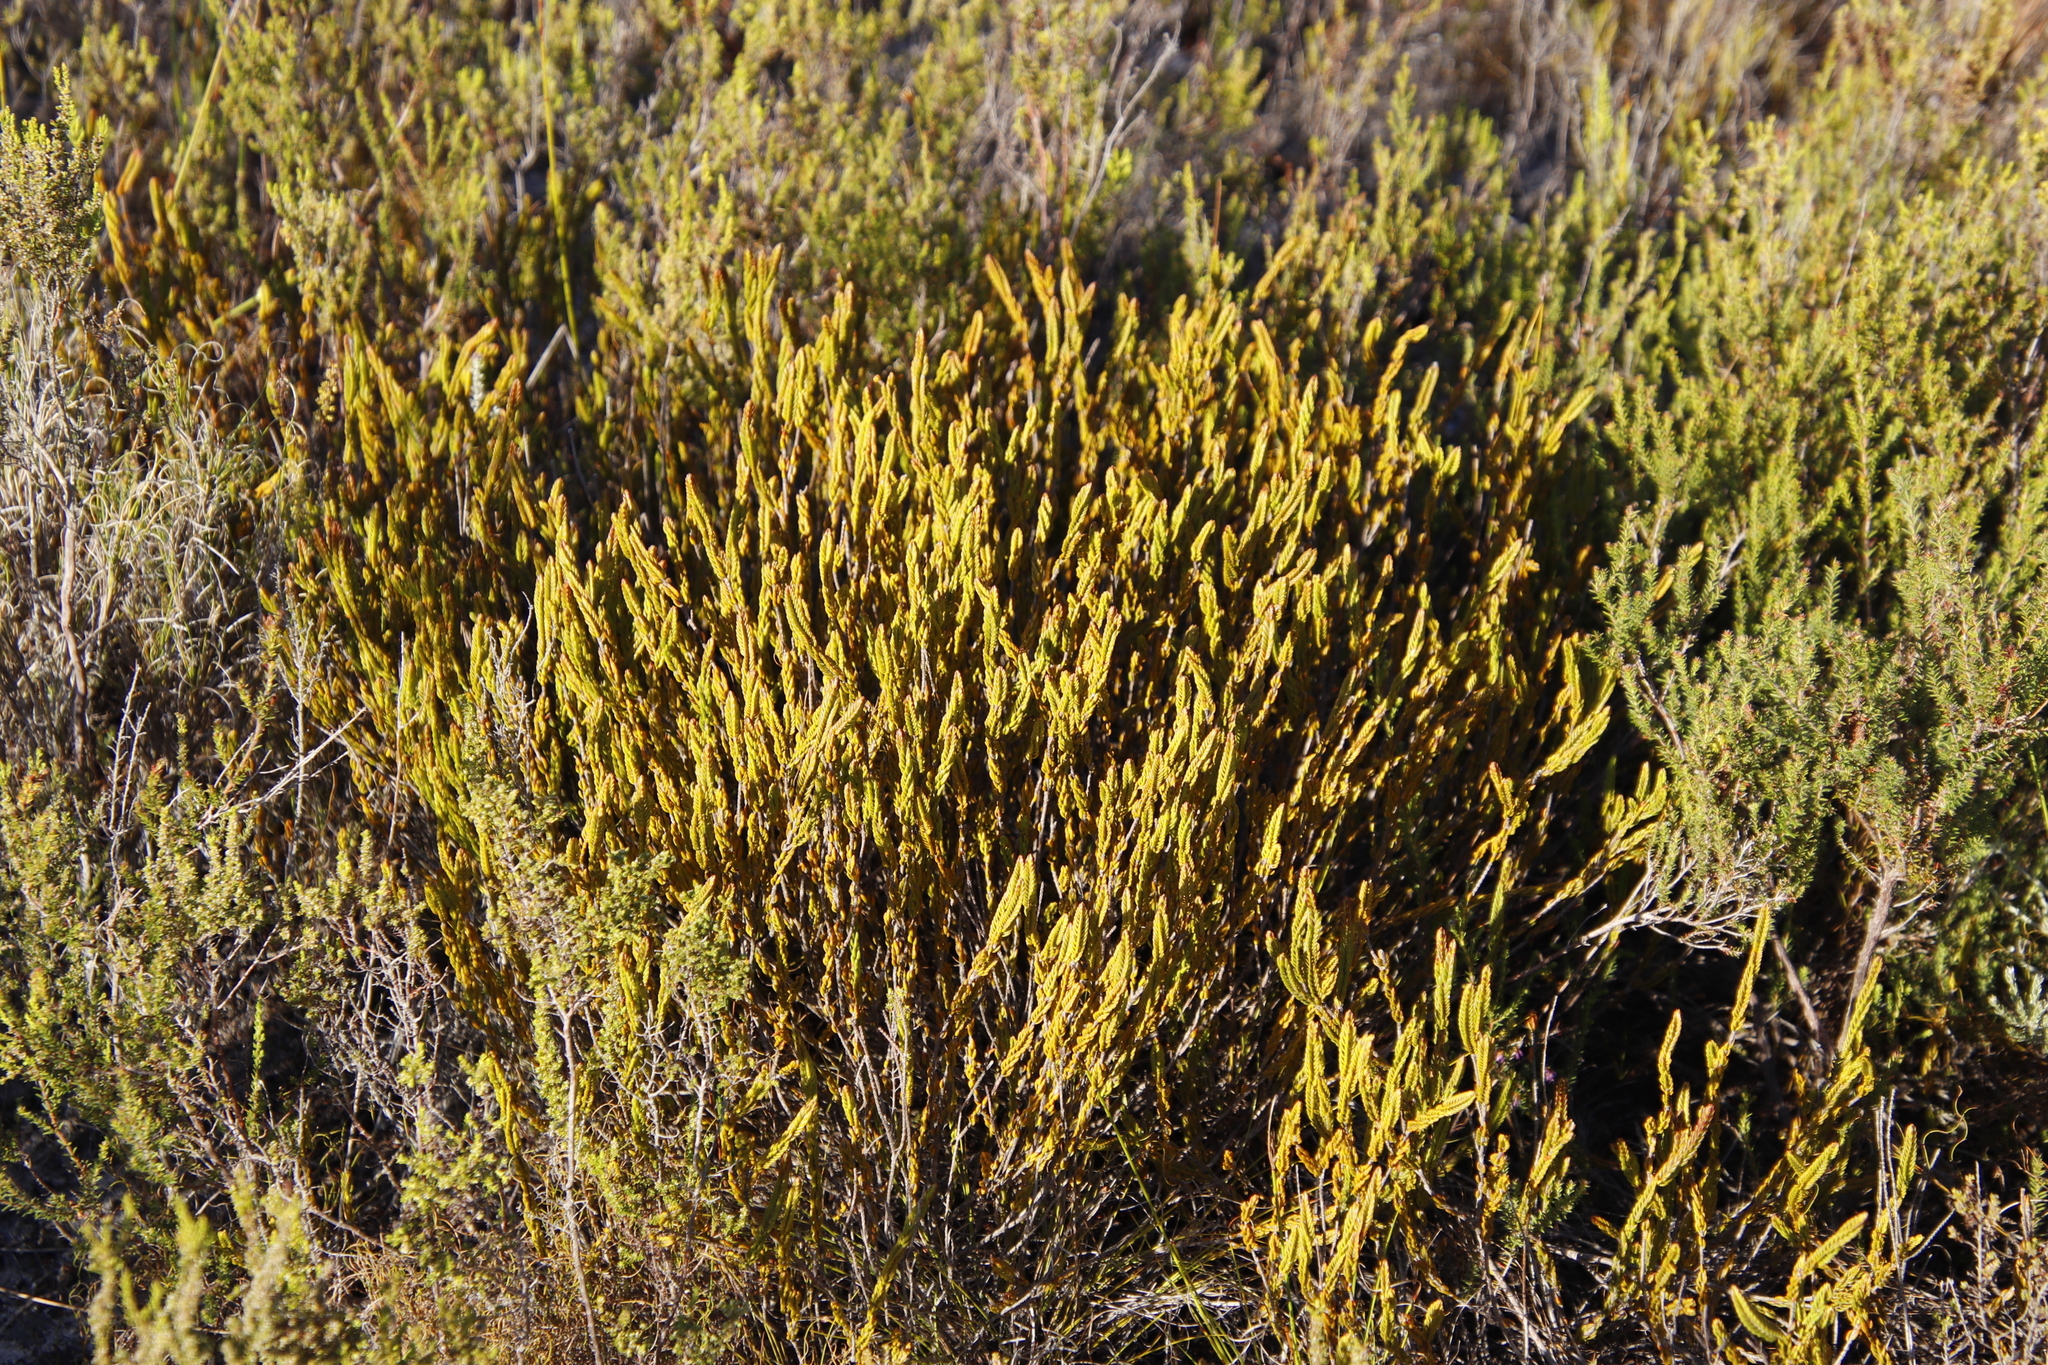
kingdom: Plantae
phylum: Tracheophyta
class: Magnoliopsida
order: Malvales
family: Thymelaeaceae
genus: Lachnaea
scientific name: Lachnaea grandiflora
